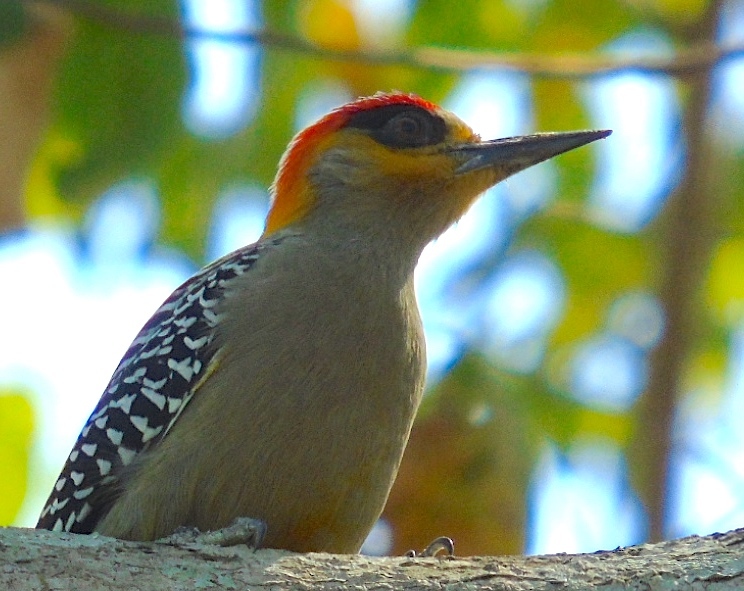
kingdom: Animalia
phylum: Chordata
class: Aves
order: Piciformes
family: Picidae
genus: Melanerpes
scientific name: Melanerpes chrysogenys
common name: Golden-cheeked woodpecker
